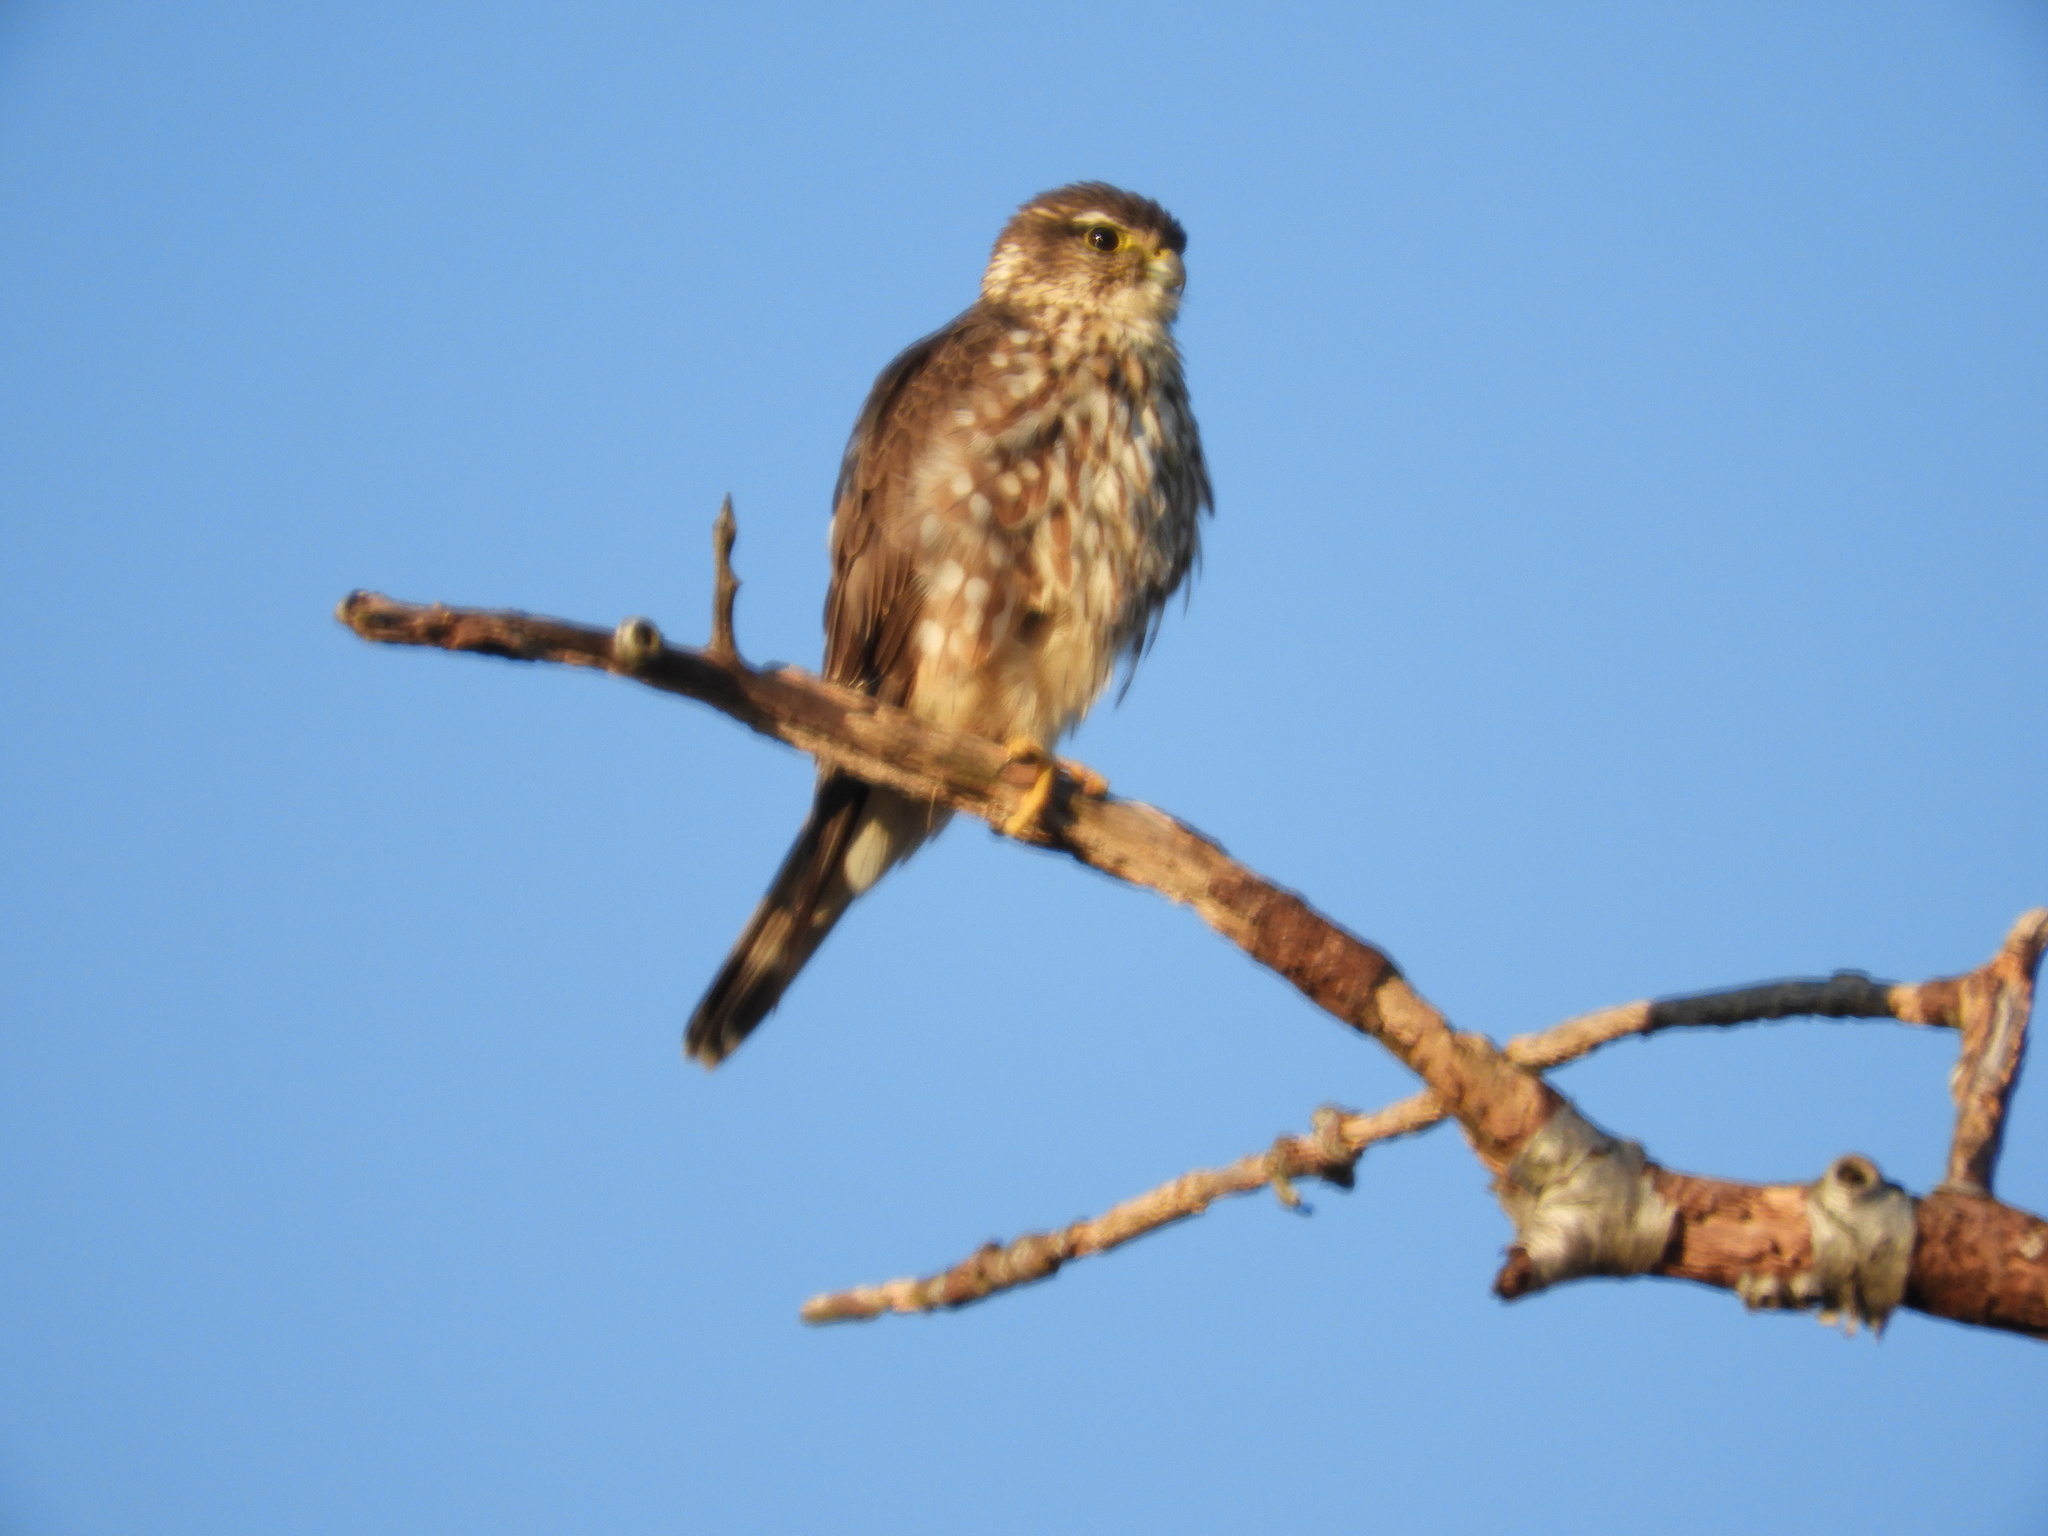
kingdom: Animalia
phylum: Chordata
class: Aves
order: Falconiformes
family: Falconidae
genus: Falco
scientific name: Falco columbarius
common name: Merlin
